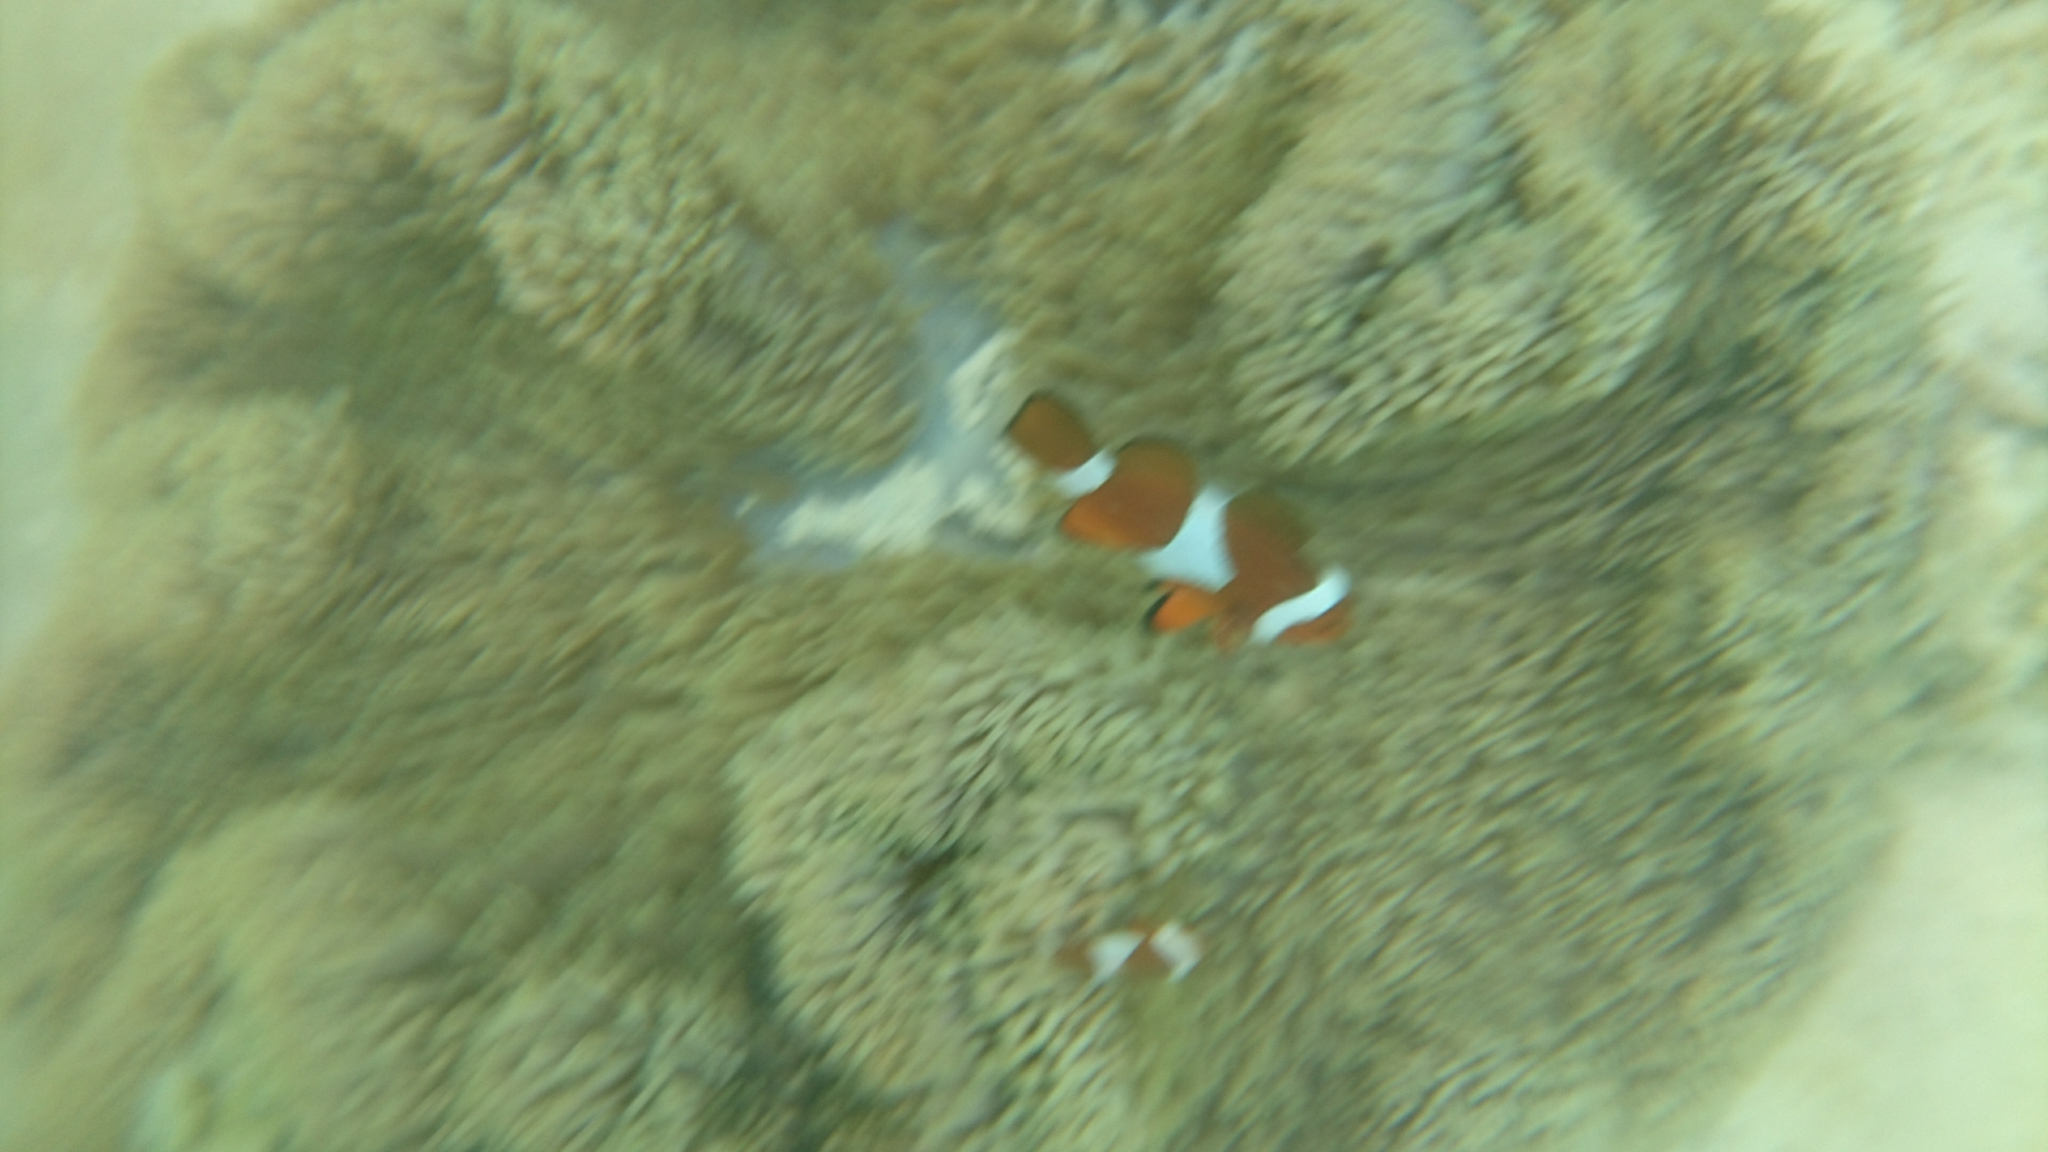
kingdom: Animalia
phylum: Chordata
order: Perciformes
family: Pomacentridae
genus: Amphiprion
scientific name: Amphiprion ocellaris
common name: Clown anemonefish
